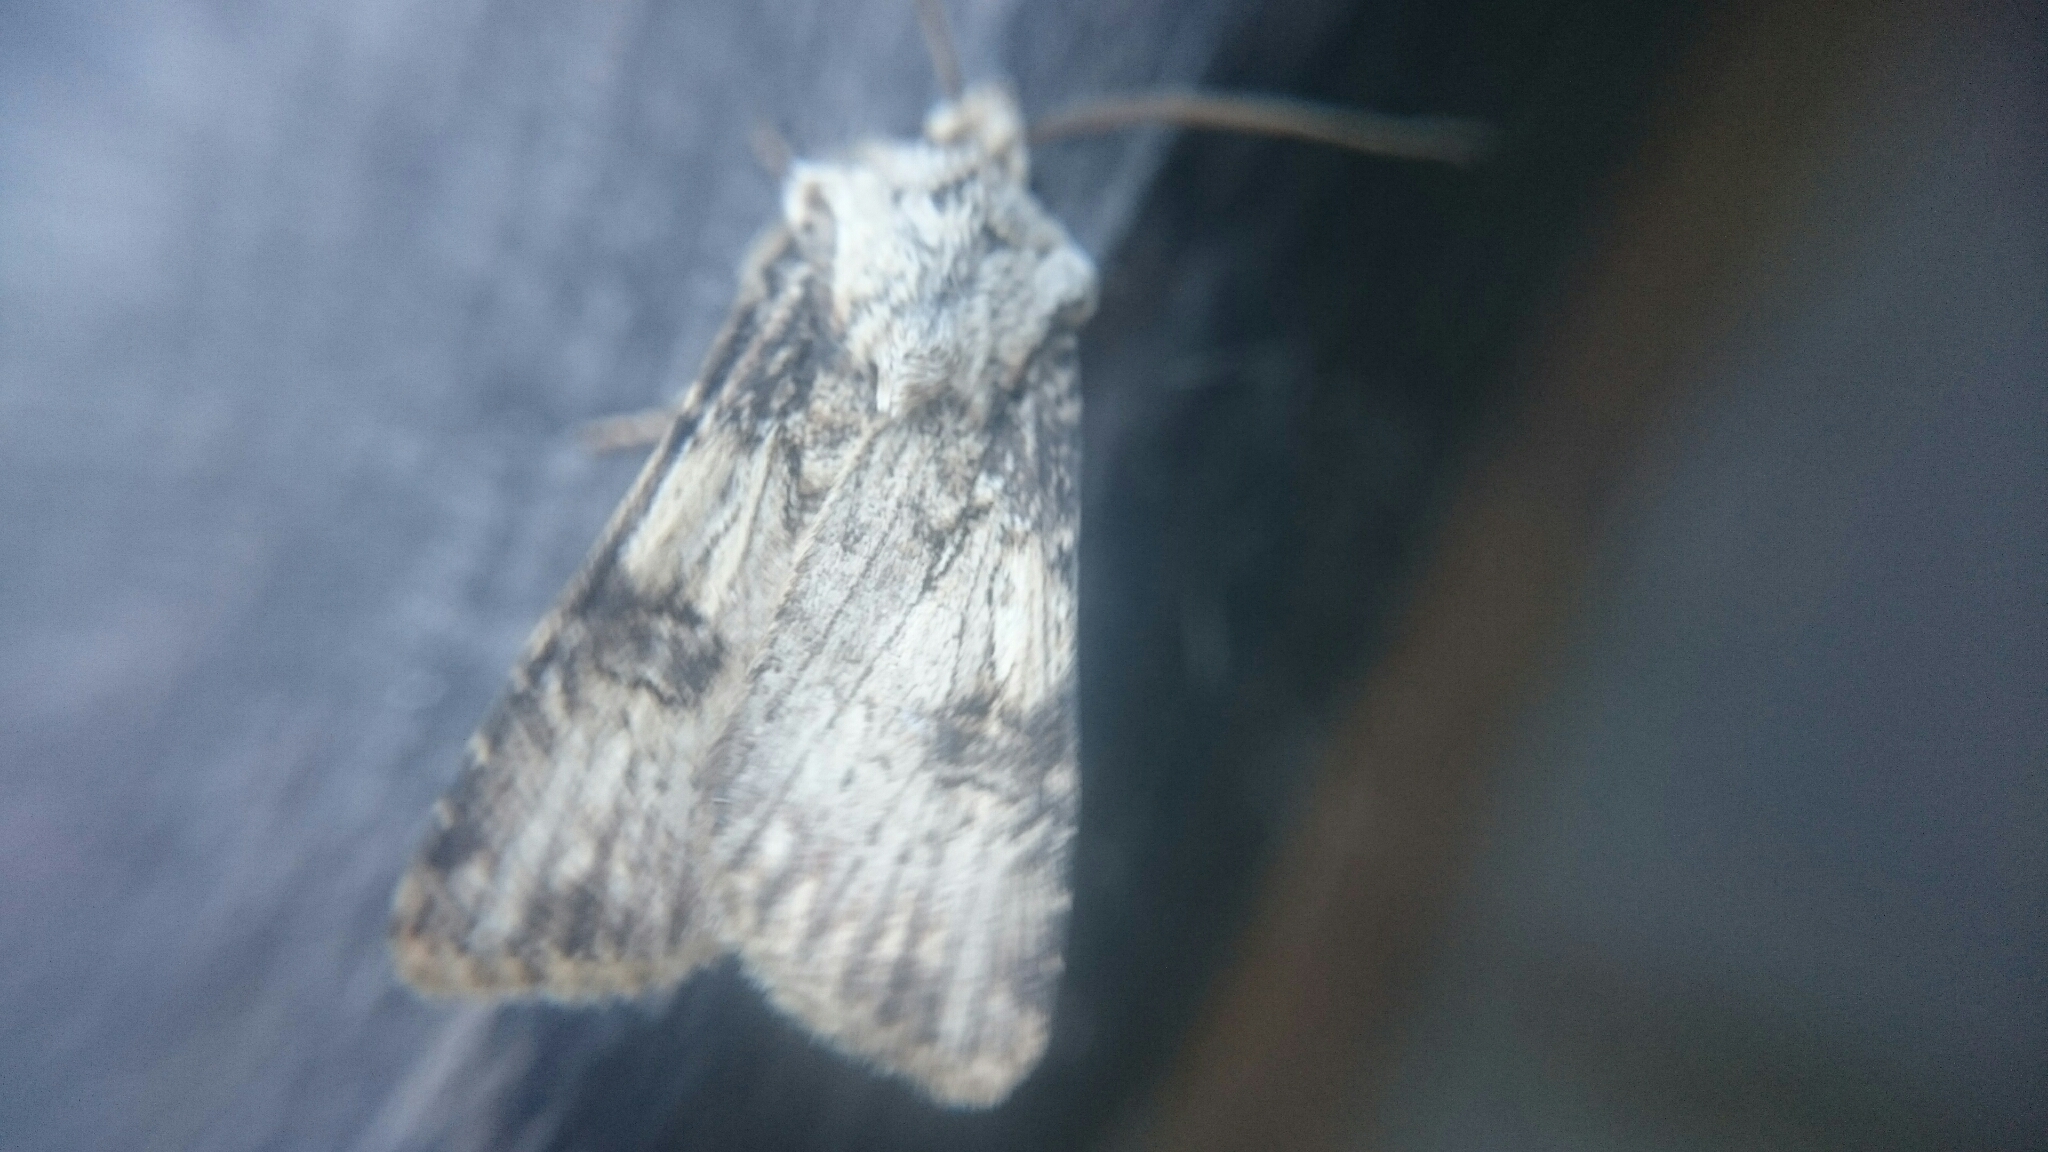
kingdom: Animalia
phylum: Arthropoda
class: Insecta
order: Lepidoptera
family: Noctuidae
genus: Agrotis
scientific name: Agrotis puta
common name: Shuttle-shaped dart
